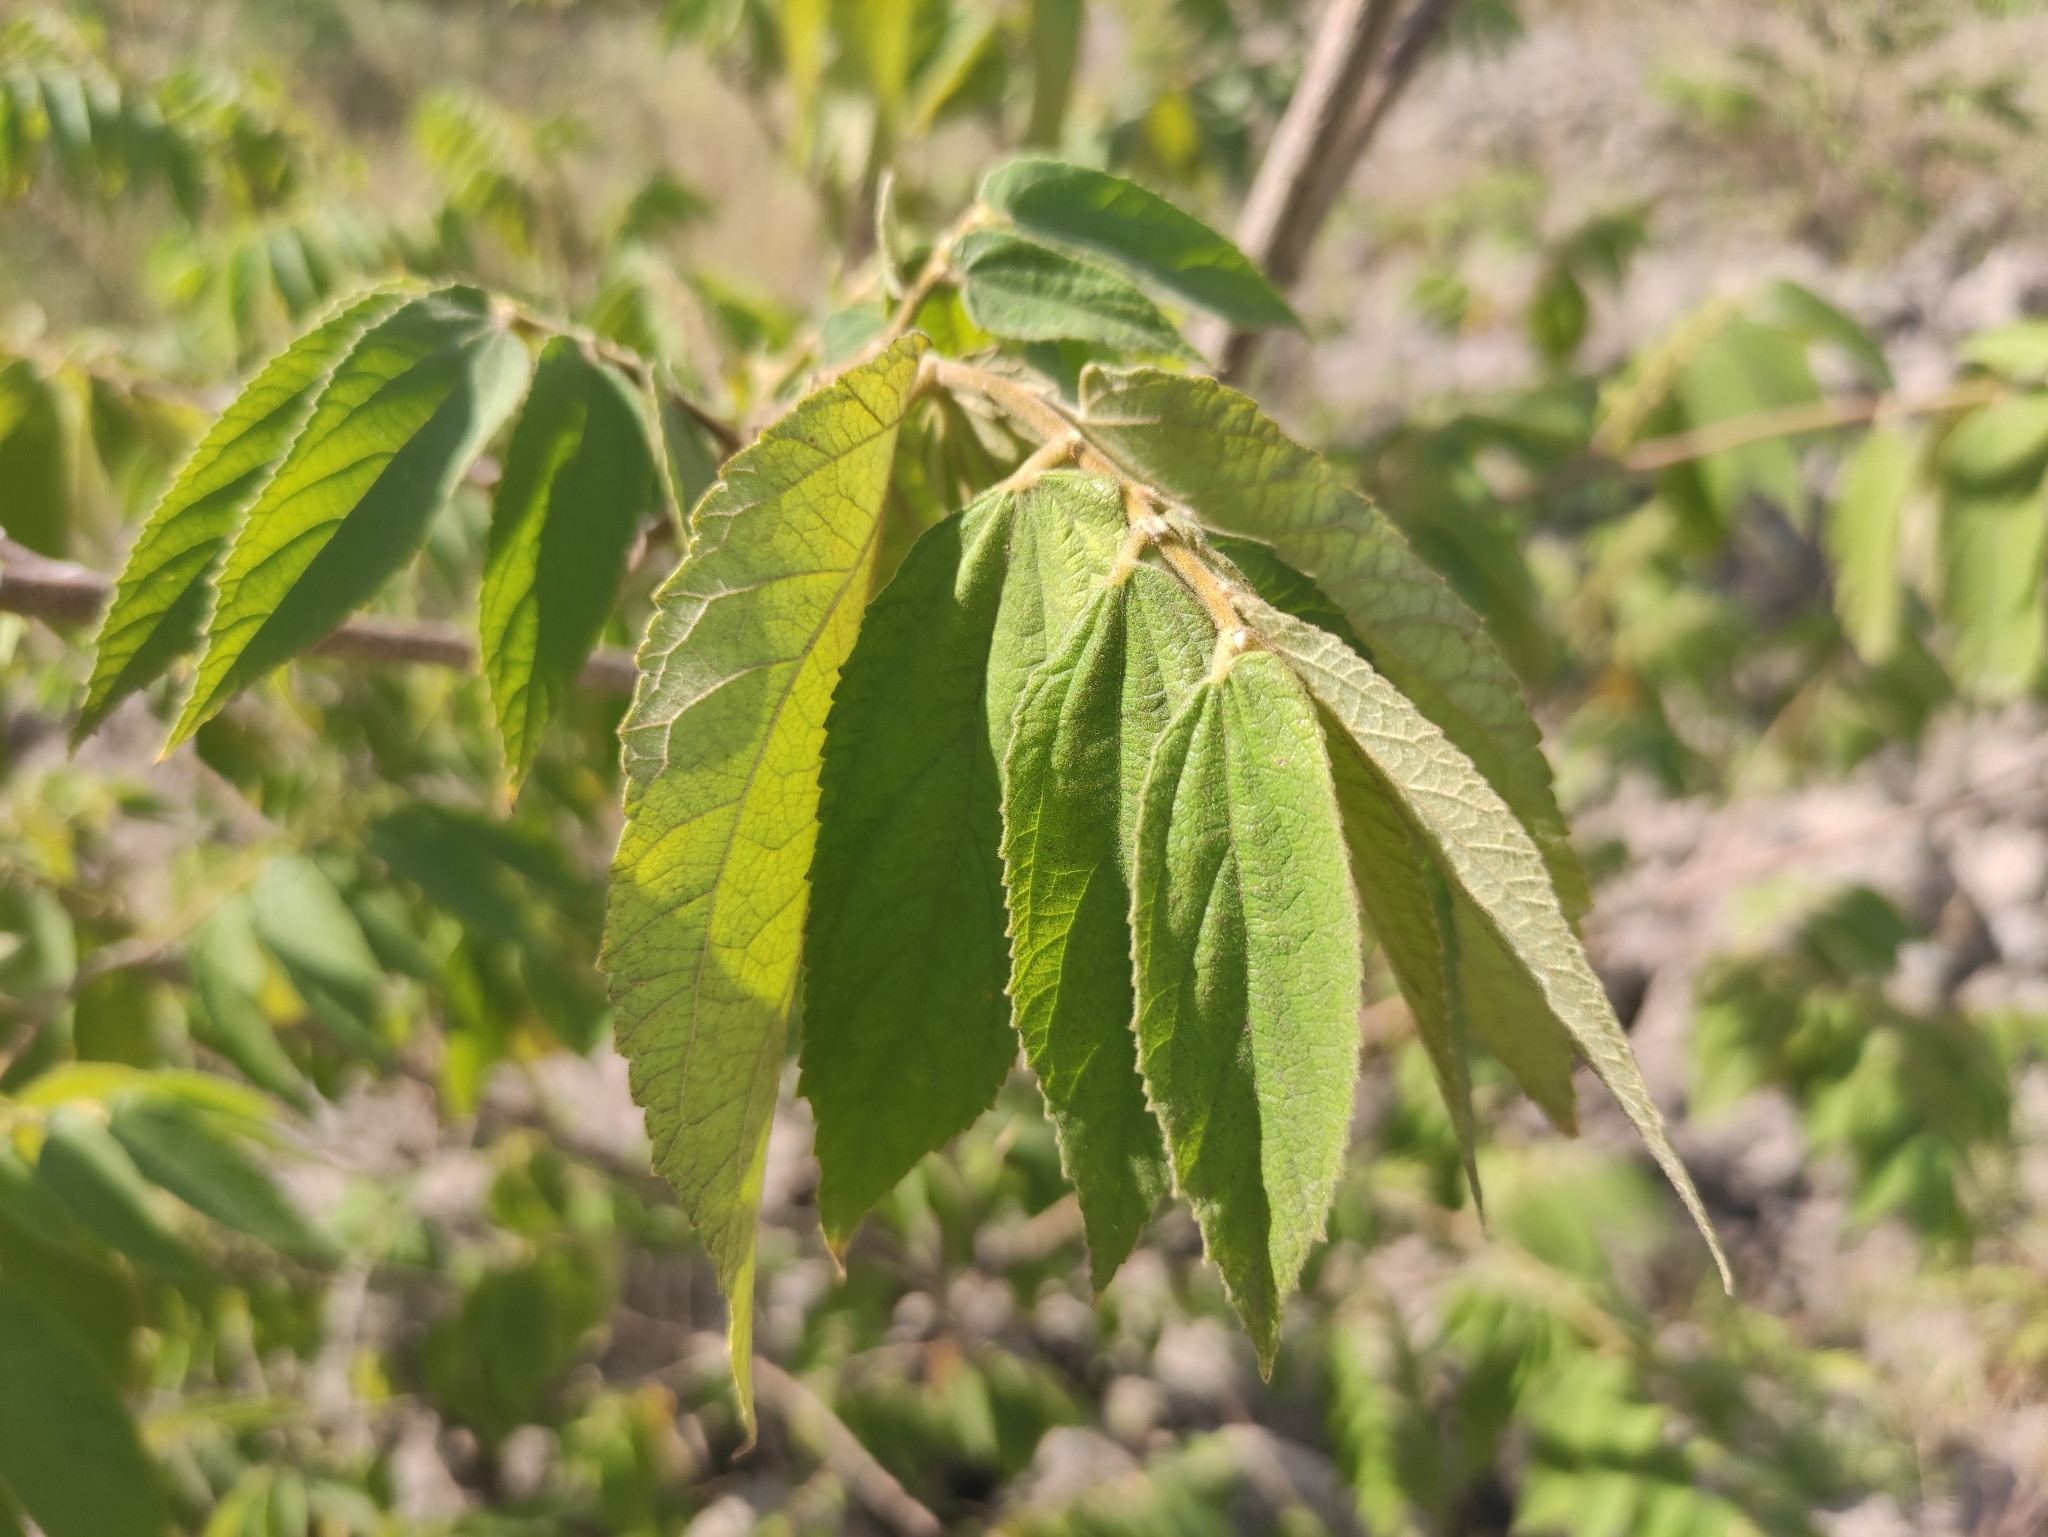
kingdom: Plantae
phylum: Tracheophyta
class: Magnoliopsida
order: Malvales
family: Muntingiaceae
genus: Muntingia
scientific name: Muntingia calabura
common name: Strawberrytree
